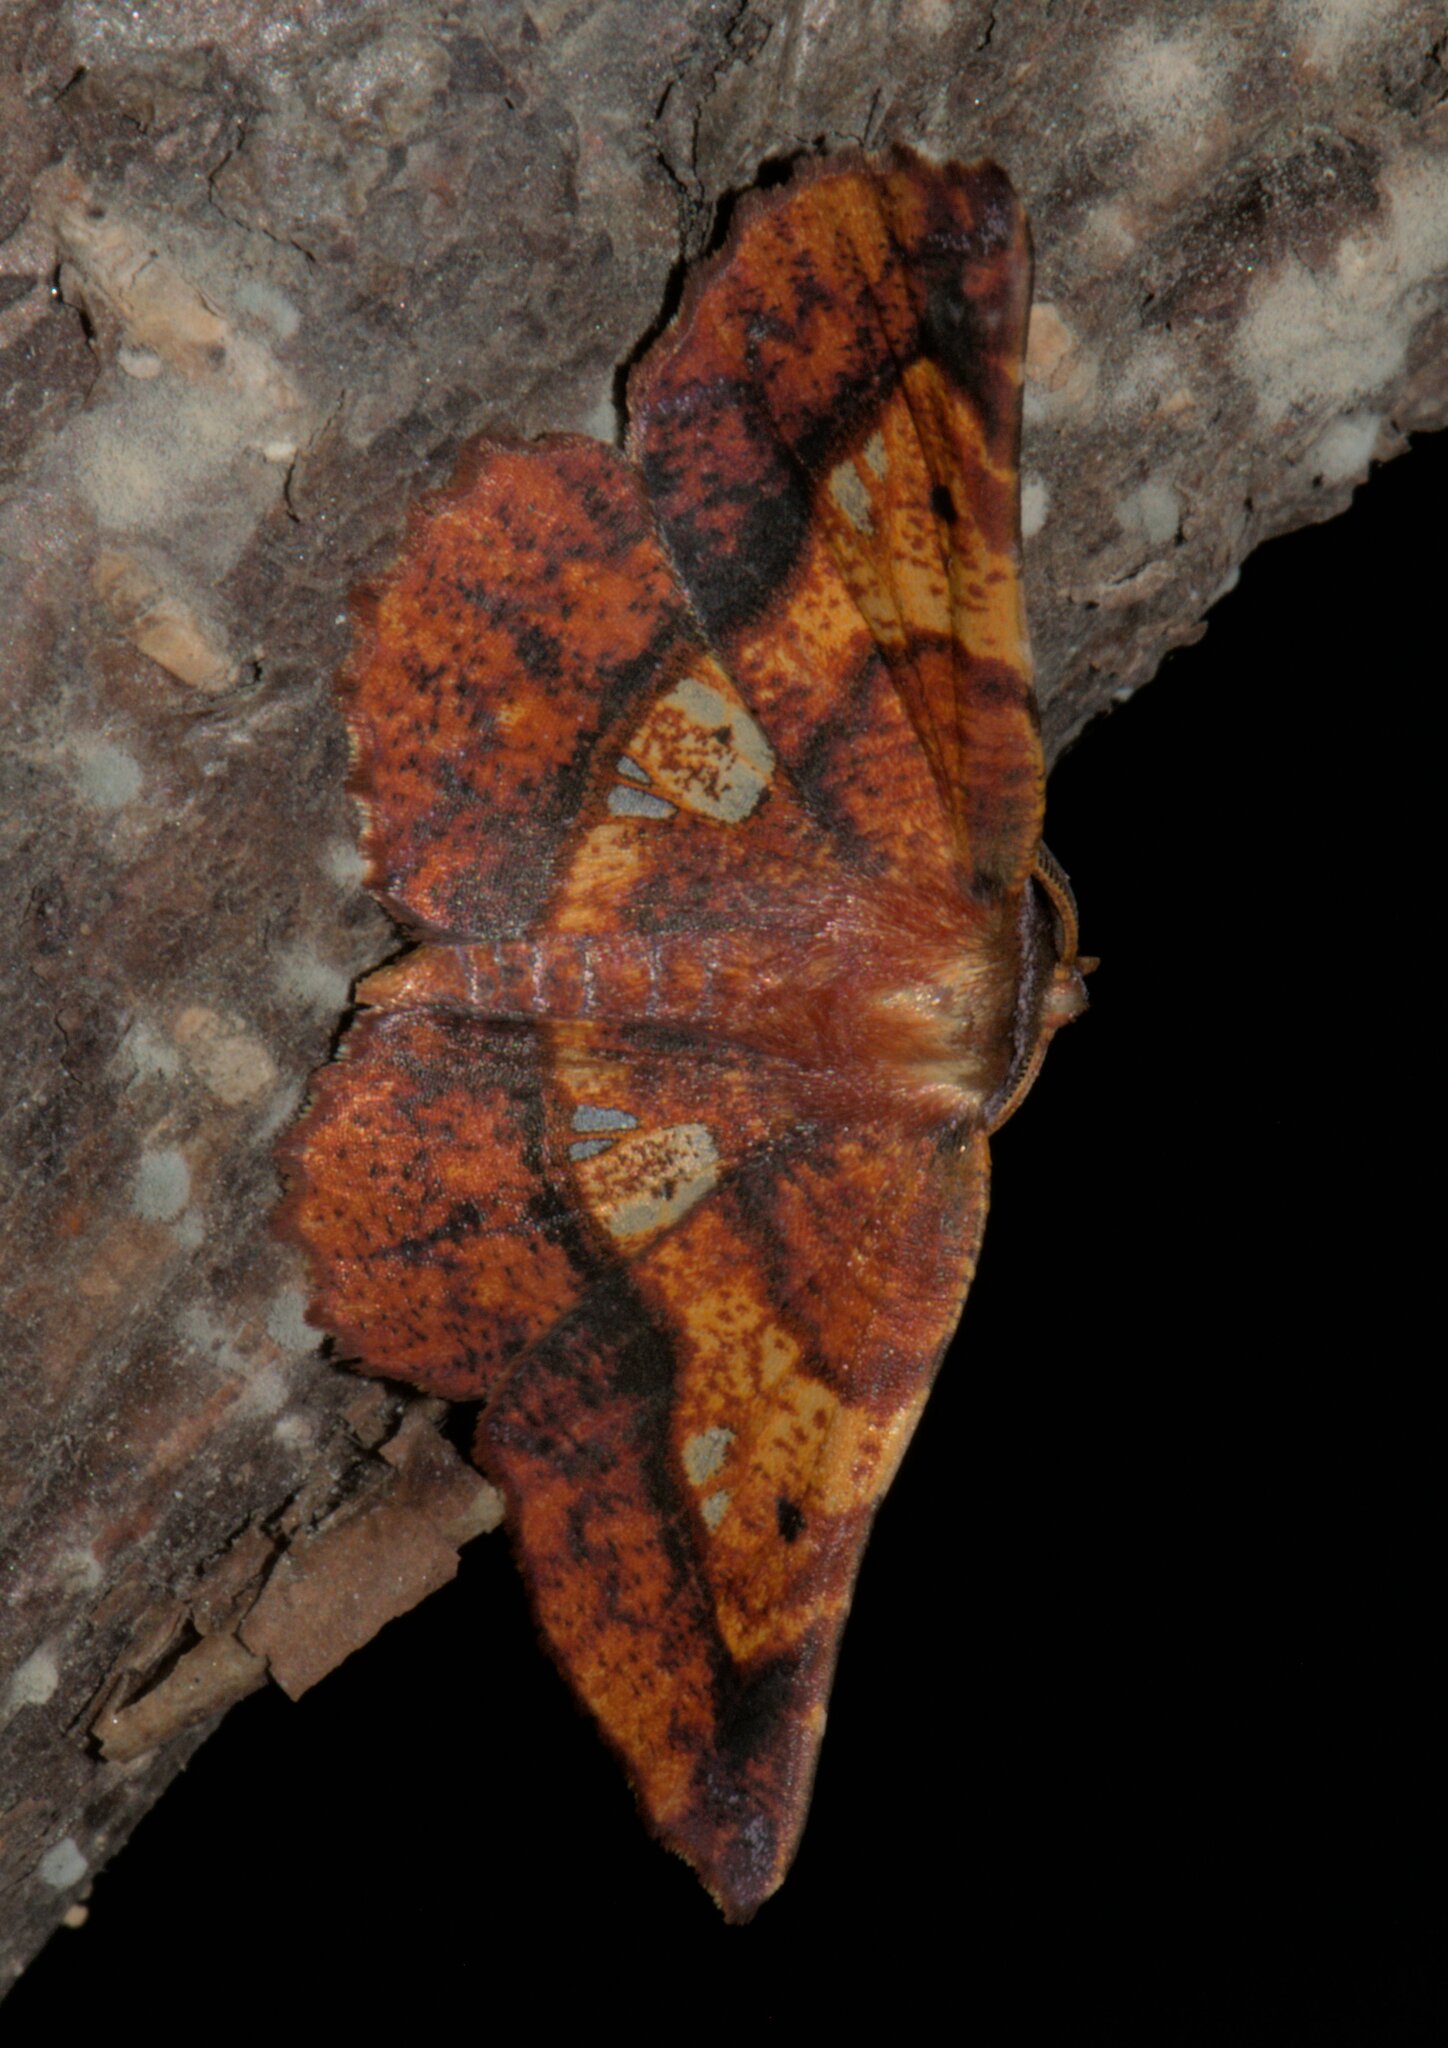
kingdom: Animalia
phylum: Arthropoda
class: Insecta
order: Lepidoptera
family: Geometridae
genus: Garaeus
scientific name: Garaeus specularis
